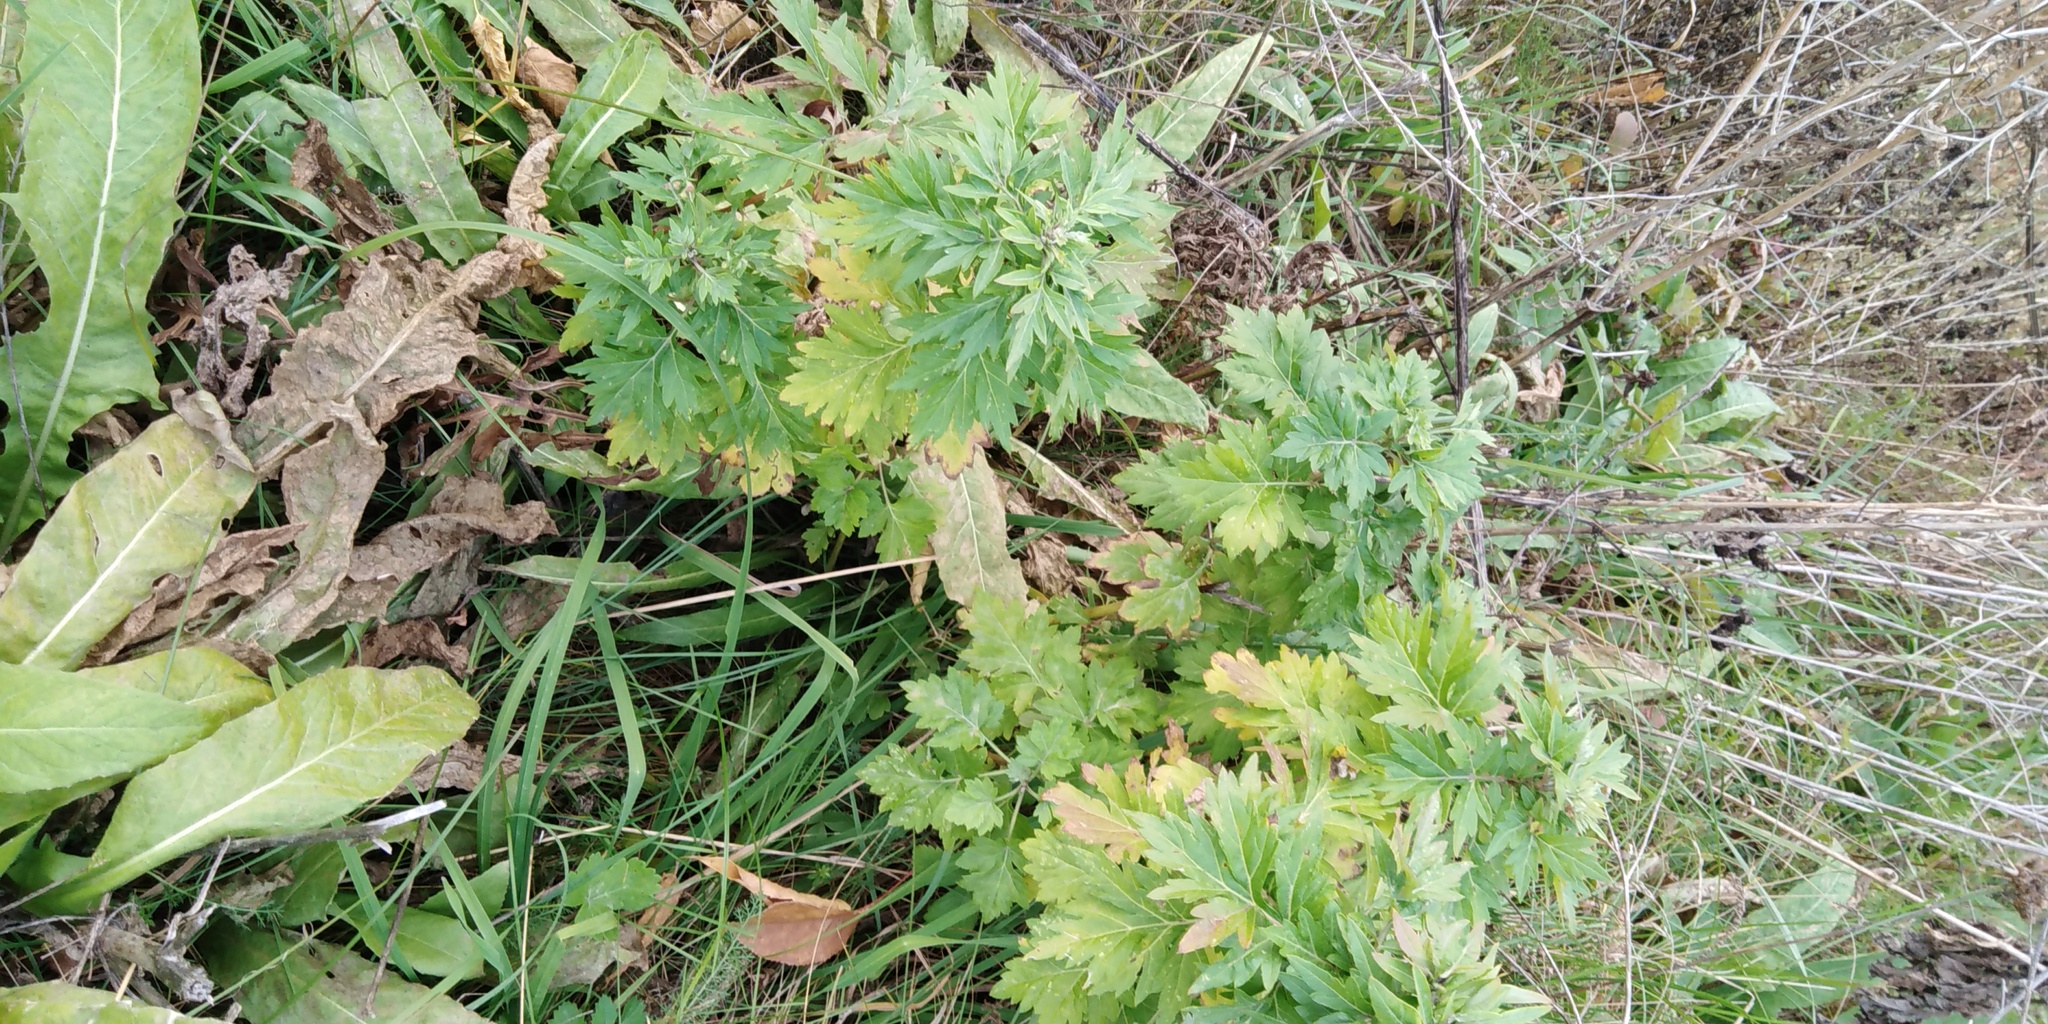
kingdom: Plantae
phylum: Tracheophyta
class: Magnoliopsida
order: Asterales
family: Asteraceae
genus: Artemisia
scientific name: Artemisia vulgaris
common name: Mugwort
